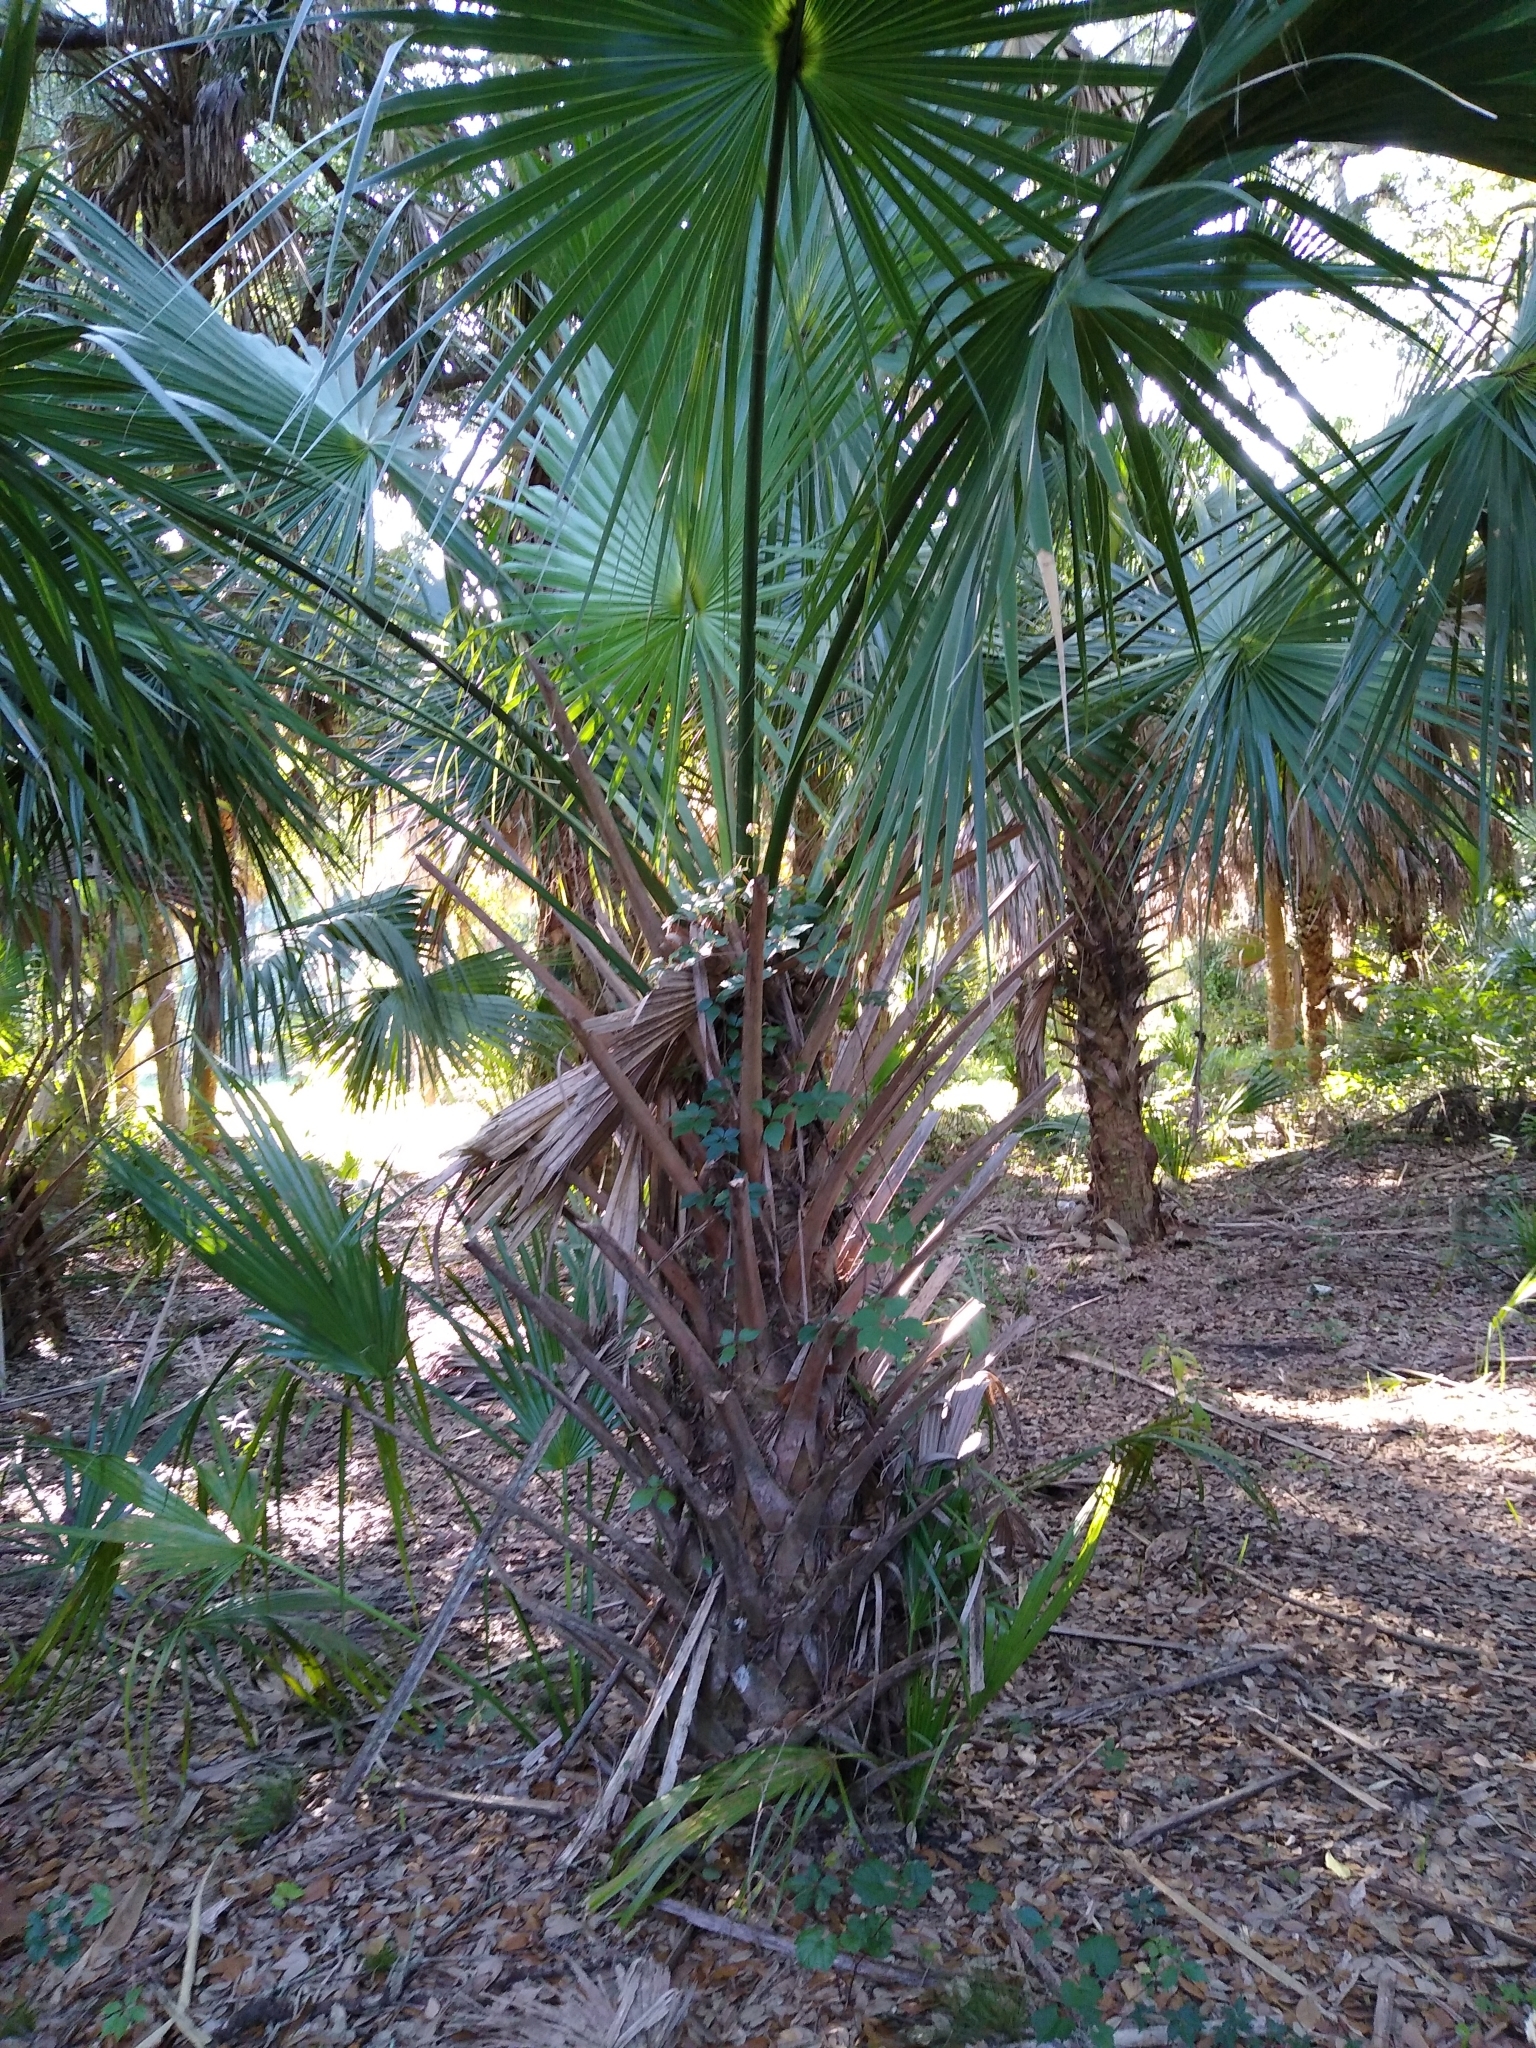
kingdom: Plantae
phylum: Tracheophyta
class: Liliopsida
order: Arecales
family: Arecaceae
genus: Sabal
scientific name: Sabal palmetto
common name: Blue palmetto
